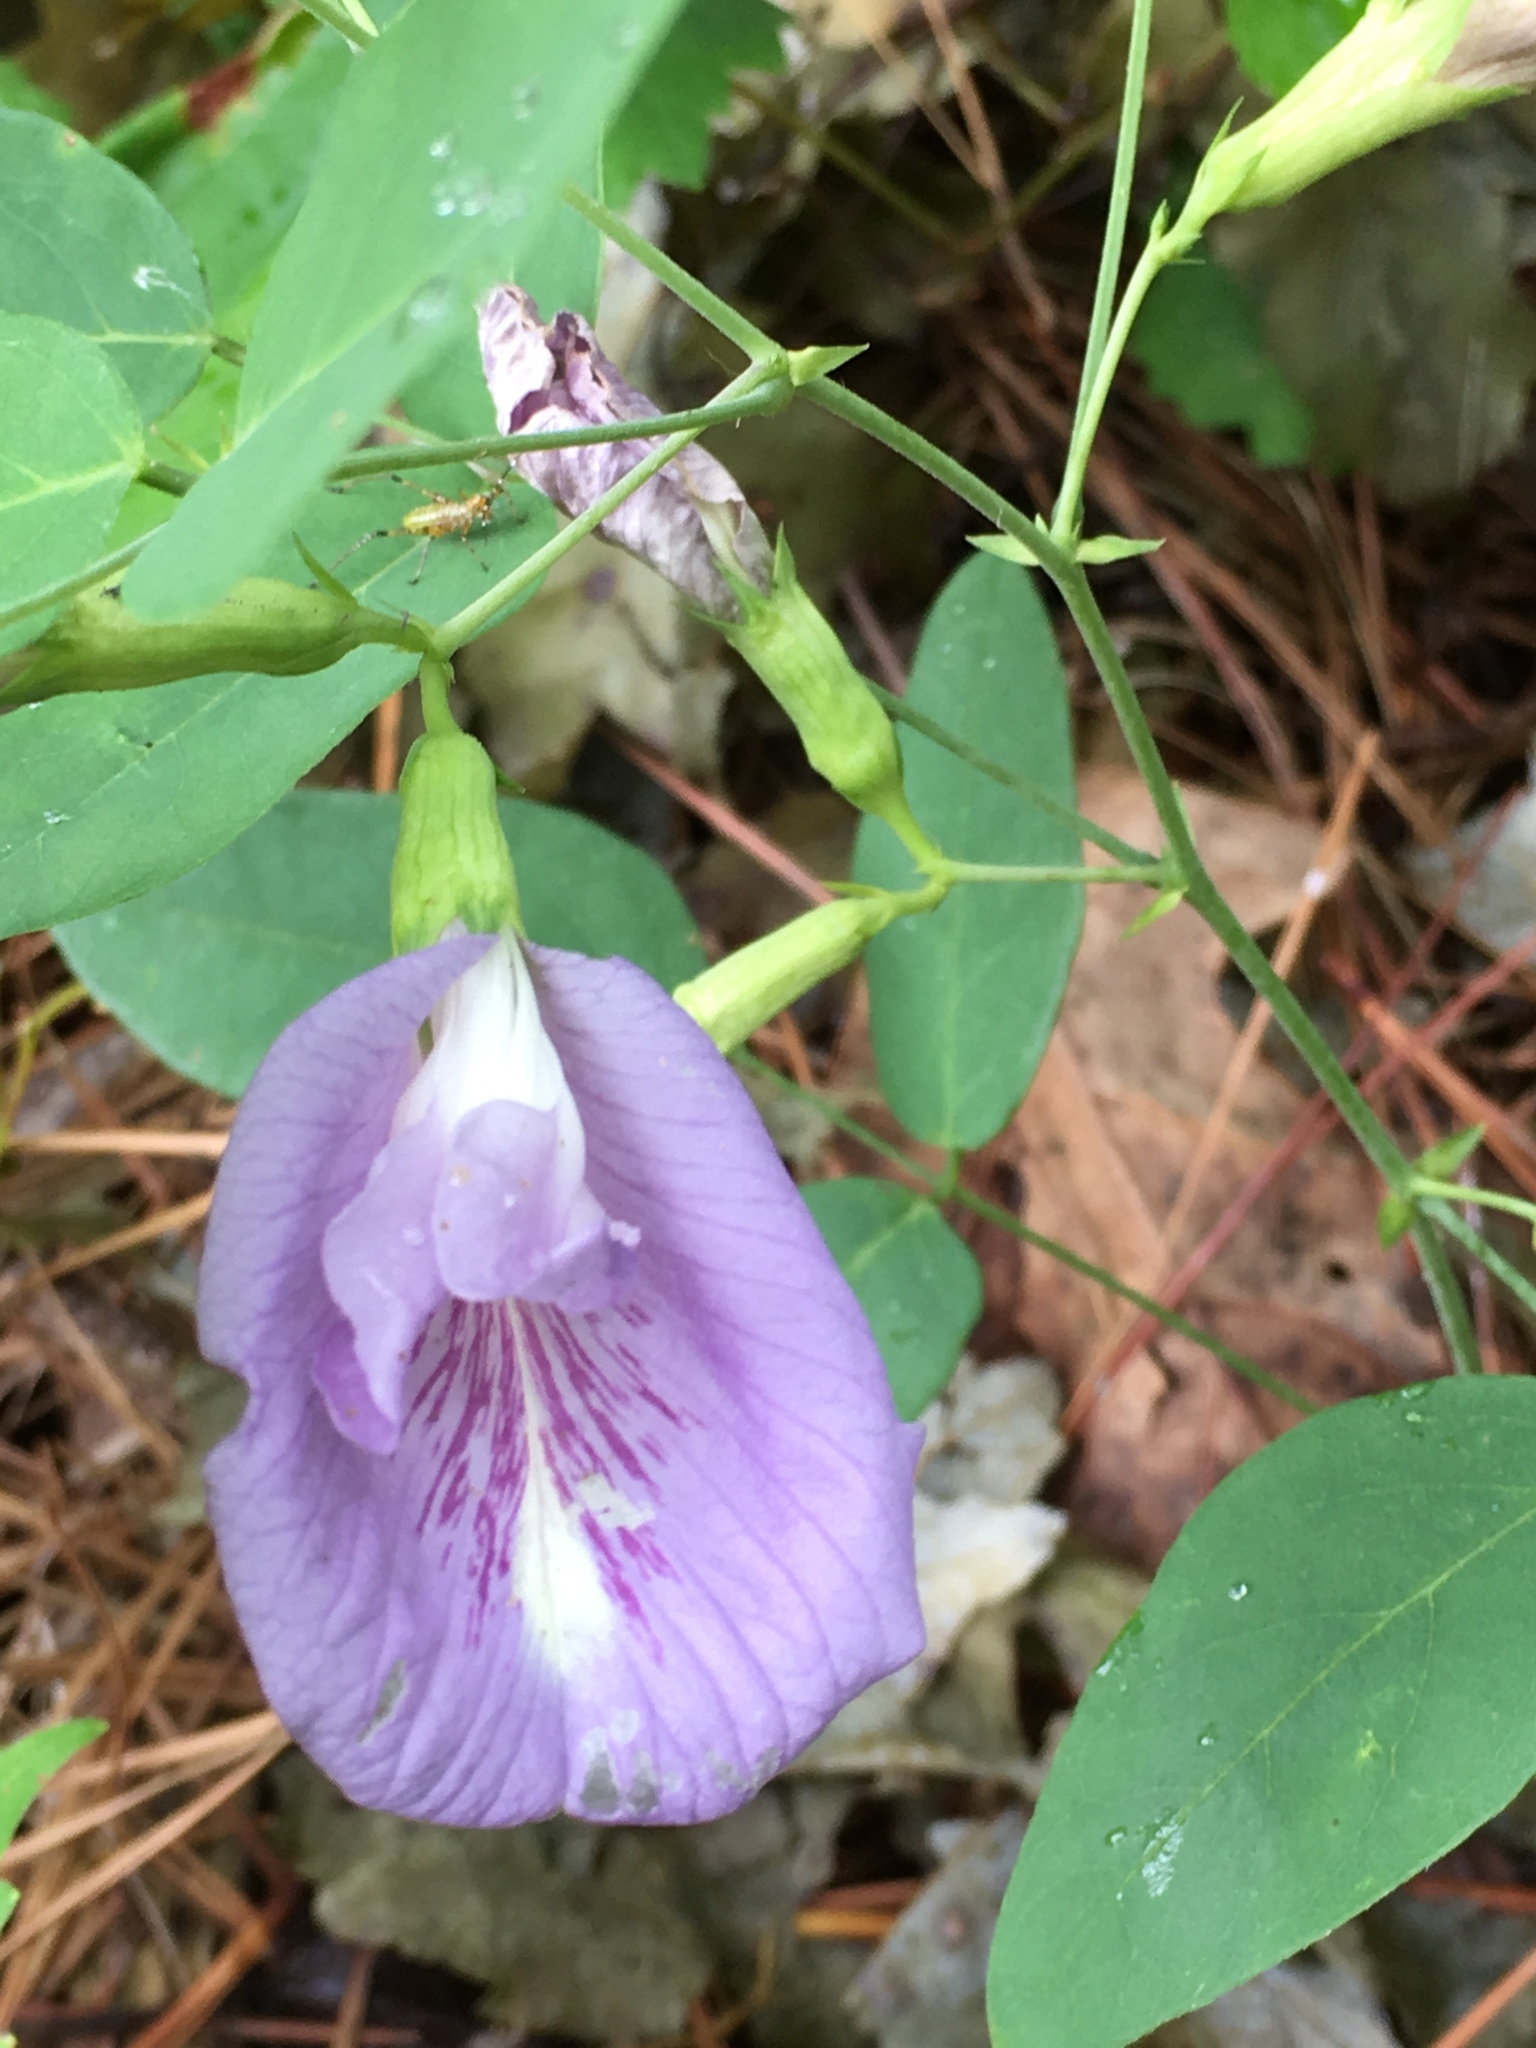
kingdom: Plantae
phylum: Tracheophyta
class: Magnoliopsida
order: Fabales
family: Fabaceae
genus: Clitoria
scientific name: Clitoria mariana
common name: Butterfly-pea
